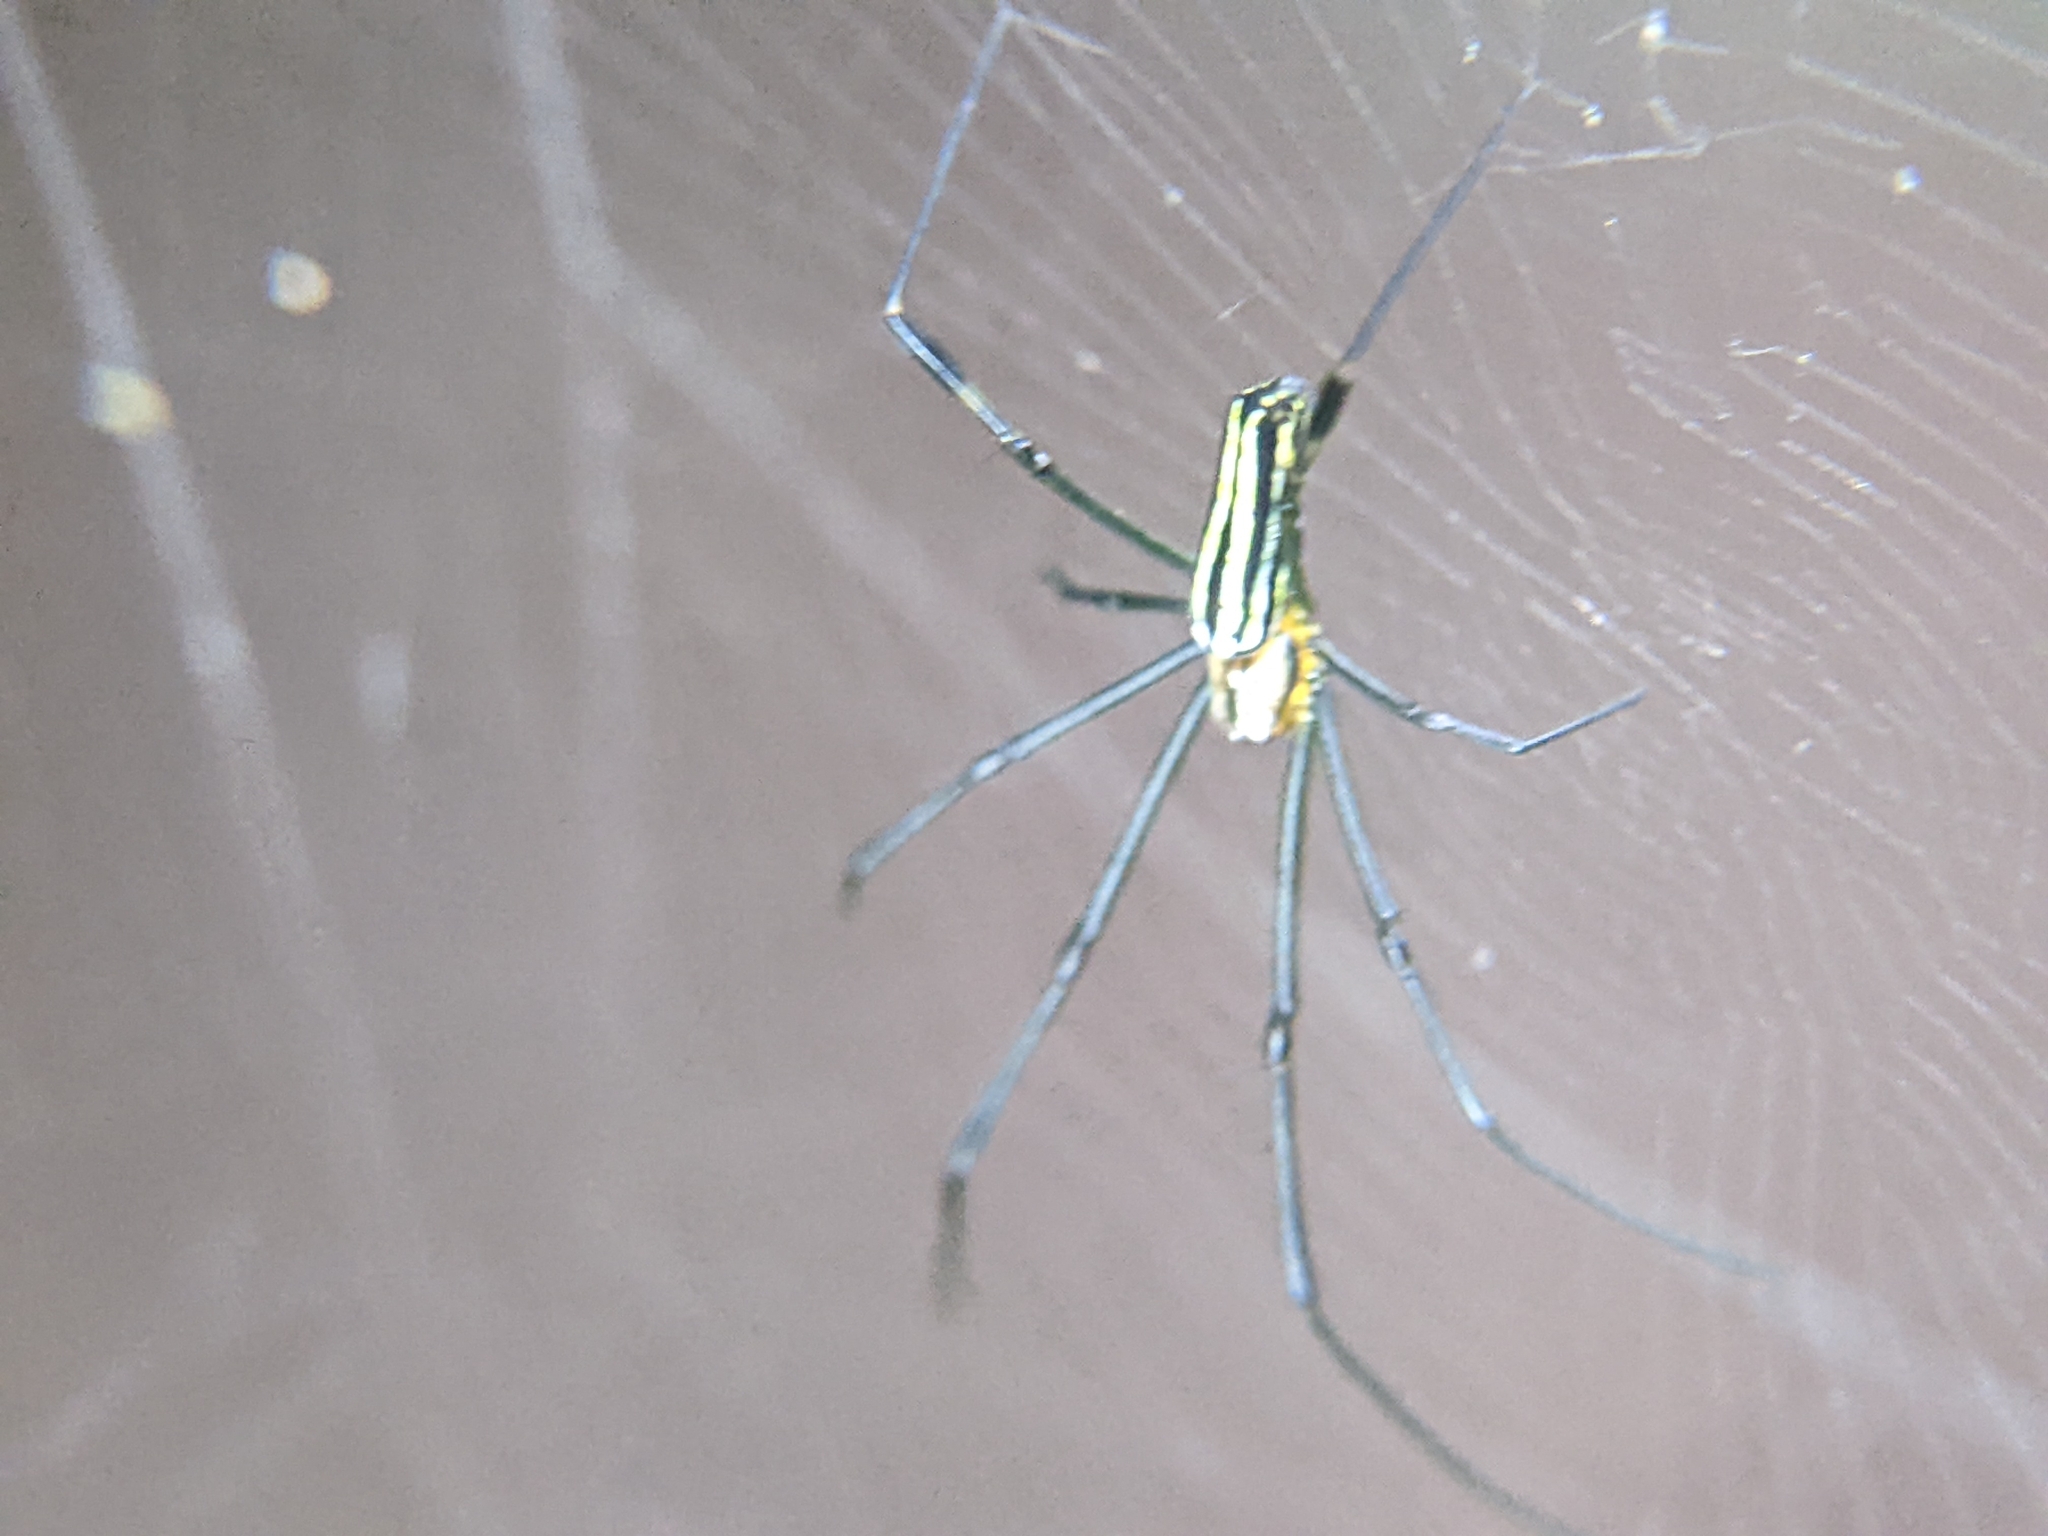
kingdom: Animalia
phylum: Arthropoda
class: Arachnida
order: Araneae
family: Araneidae
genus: Nephila
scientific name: Nephila pilipes
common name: Giant golden orb weaver
